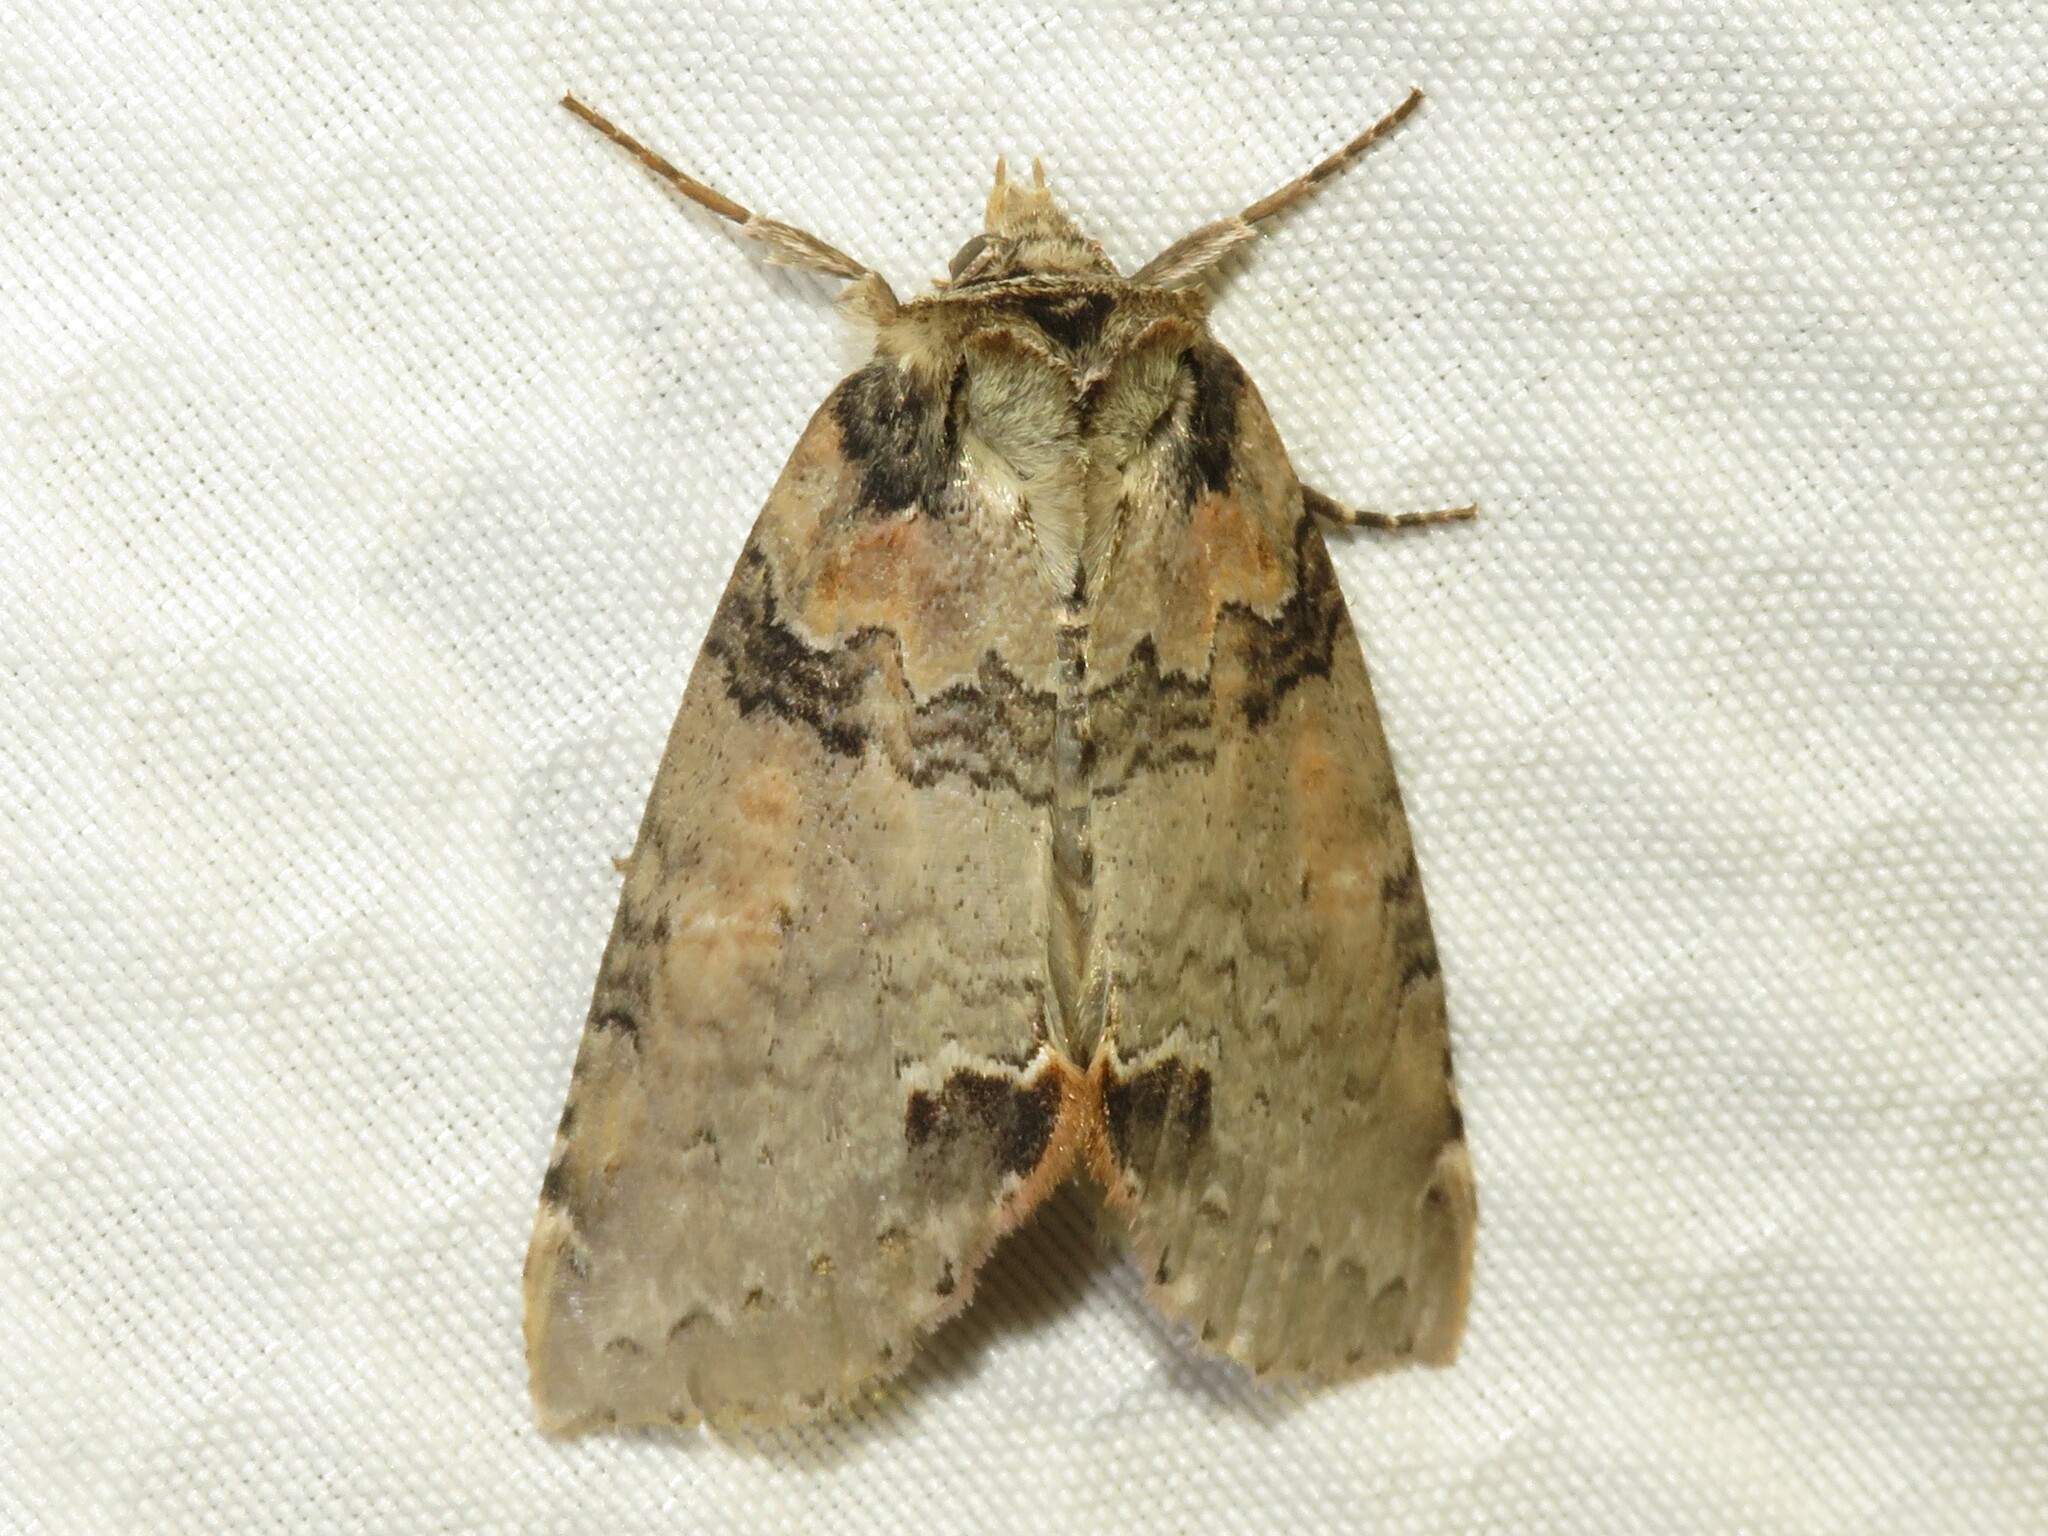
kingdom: Animalia
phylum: Arthropoda
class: Insecta
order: Lepidoptera
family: Drepanidae
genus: Pseudothyatira
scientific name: Pseudothyatira cymatophoroides
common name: Tufted thyatirid moth
